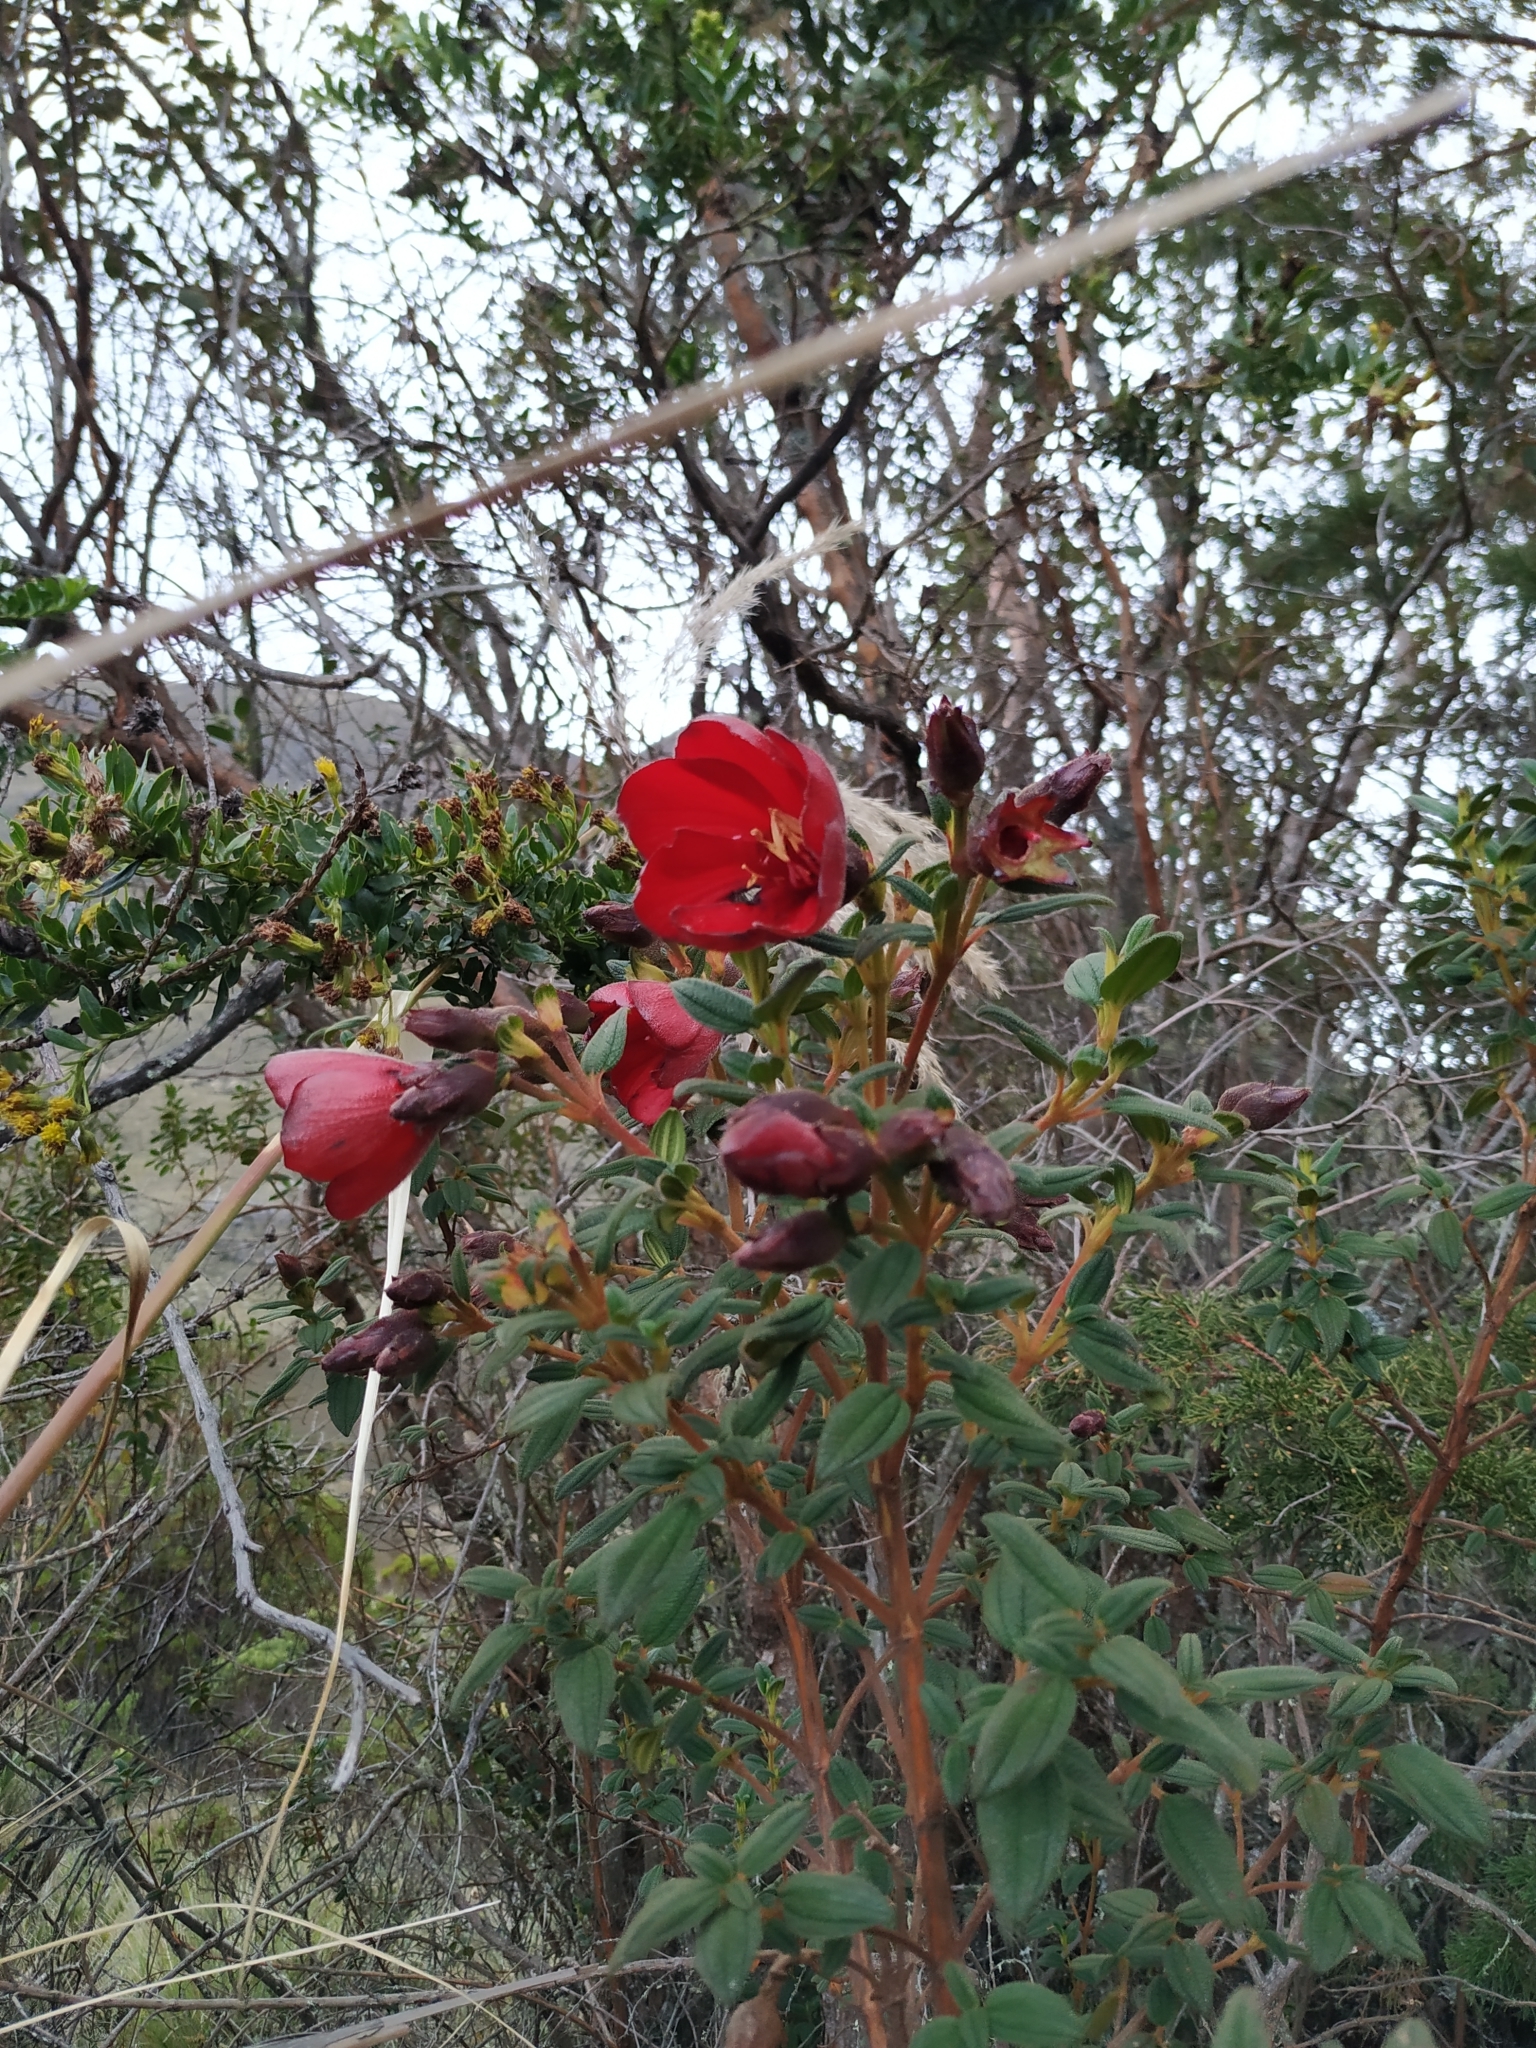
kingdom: Plantae
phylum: Tracheophyta
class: Magnoliopsida
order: Myrtales
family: Melastomataceae
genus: Chaetogastra
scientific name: Chaetogastra grossa
